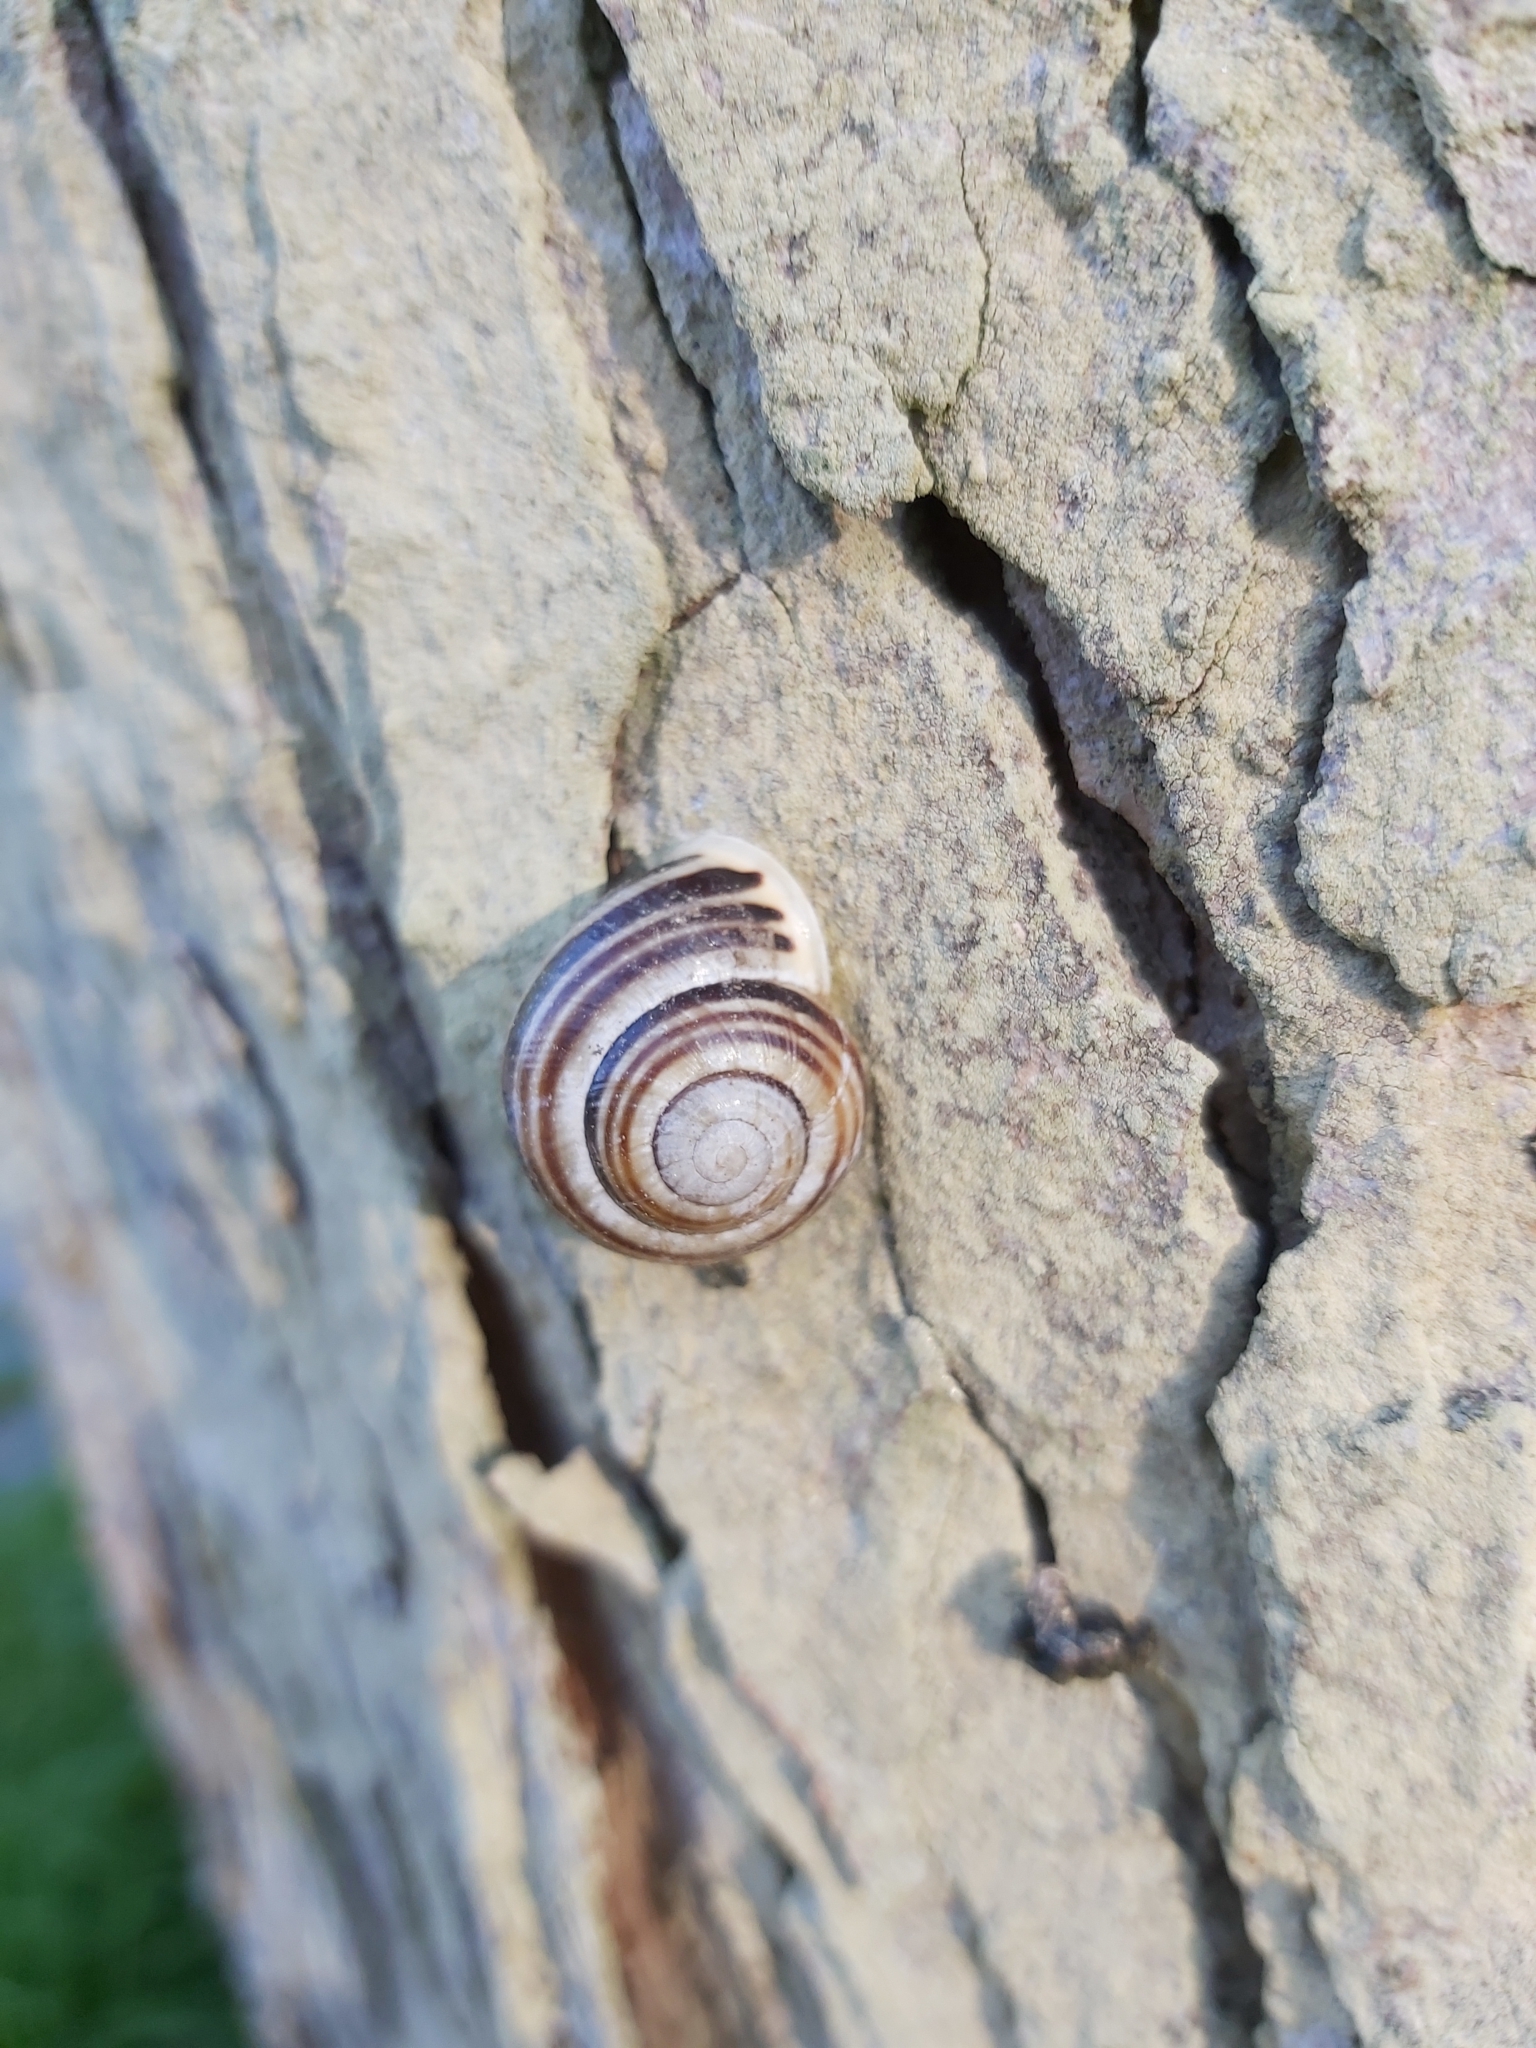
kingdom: Animalia
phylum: Mollusca
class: Gastropoda
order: Stylommatophora
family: Helicidae
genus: Cepaea
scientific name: Cepaea hortensis
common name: White-lip gardensnail
